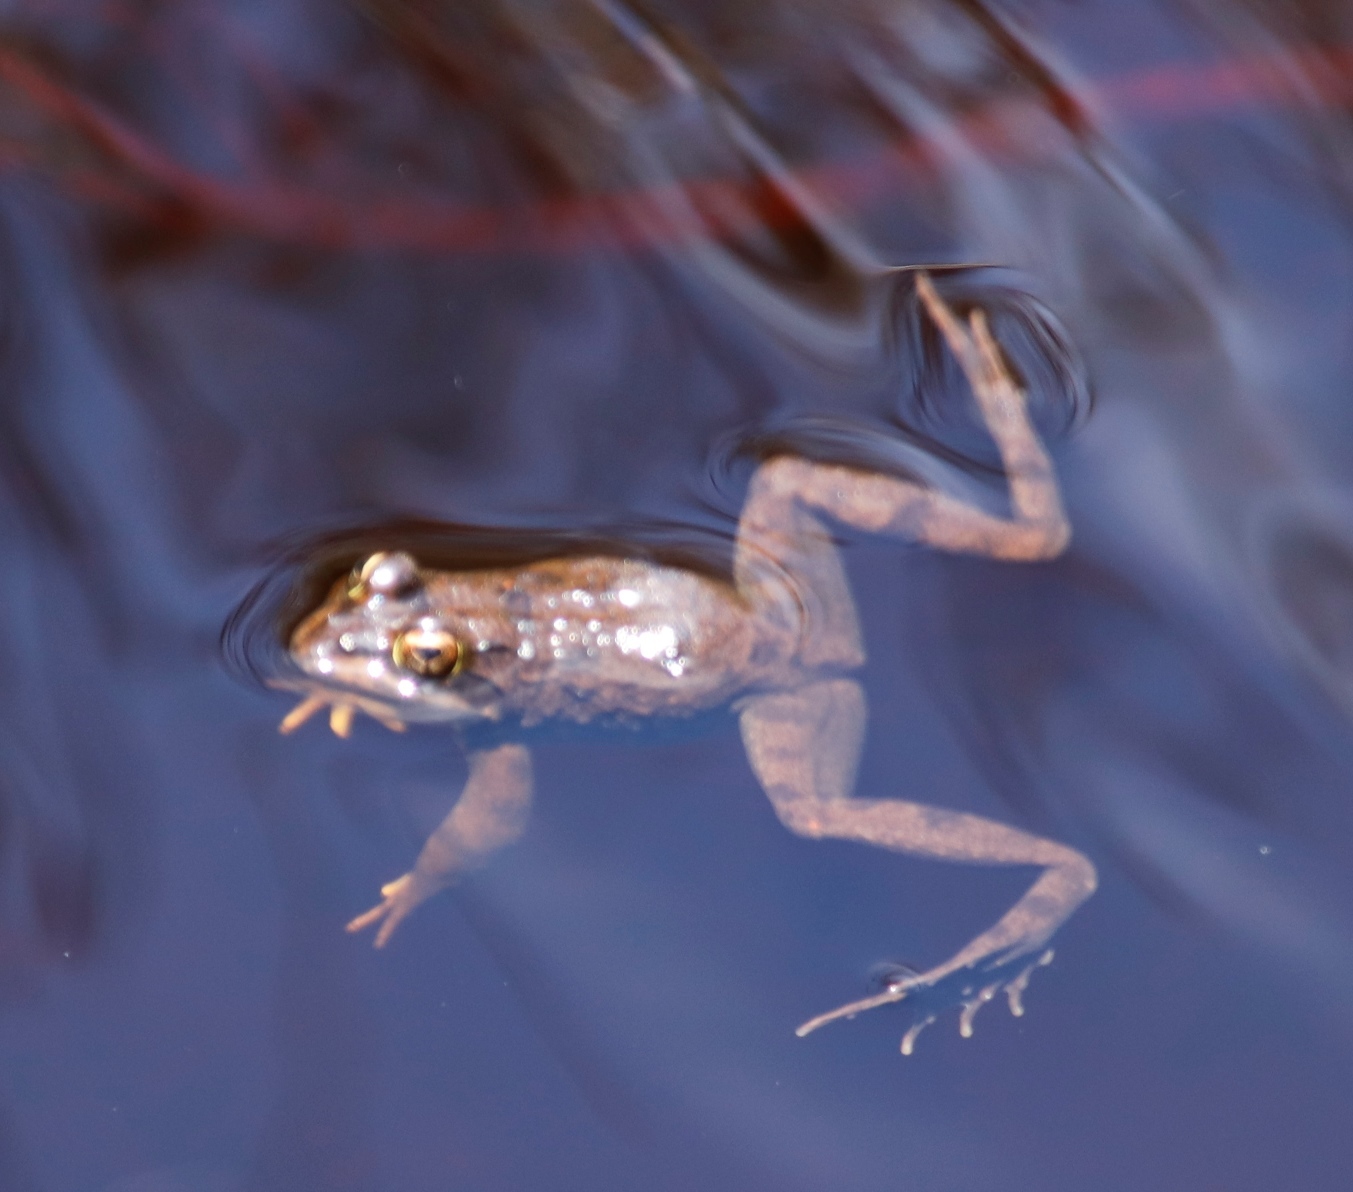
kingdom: Animalia
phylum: Chordata
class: Amphibia
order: Anura
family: Pyxicephalidae
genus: Amietia
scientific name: Amietia fuscigula
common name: Cape rana
